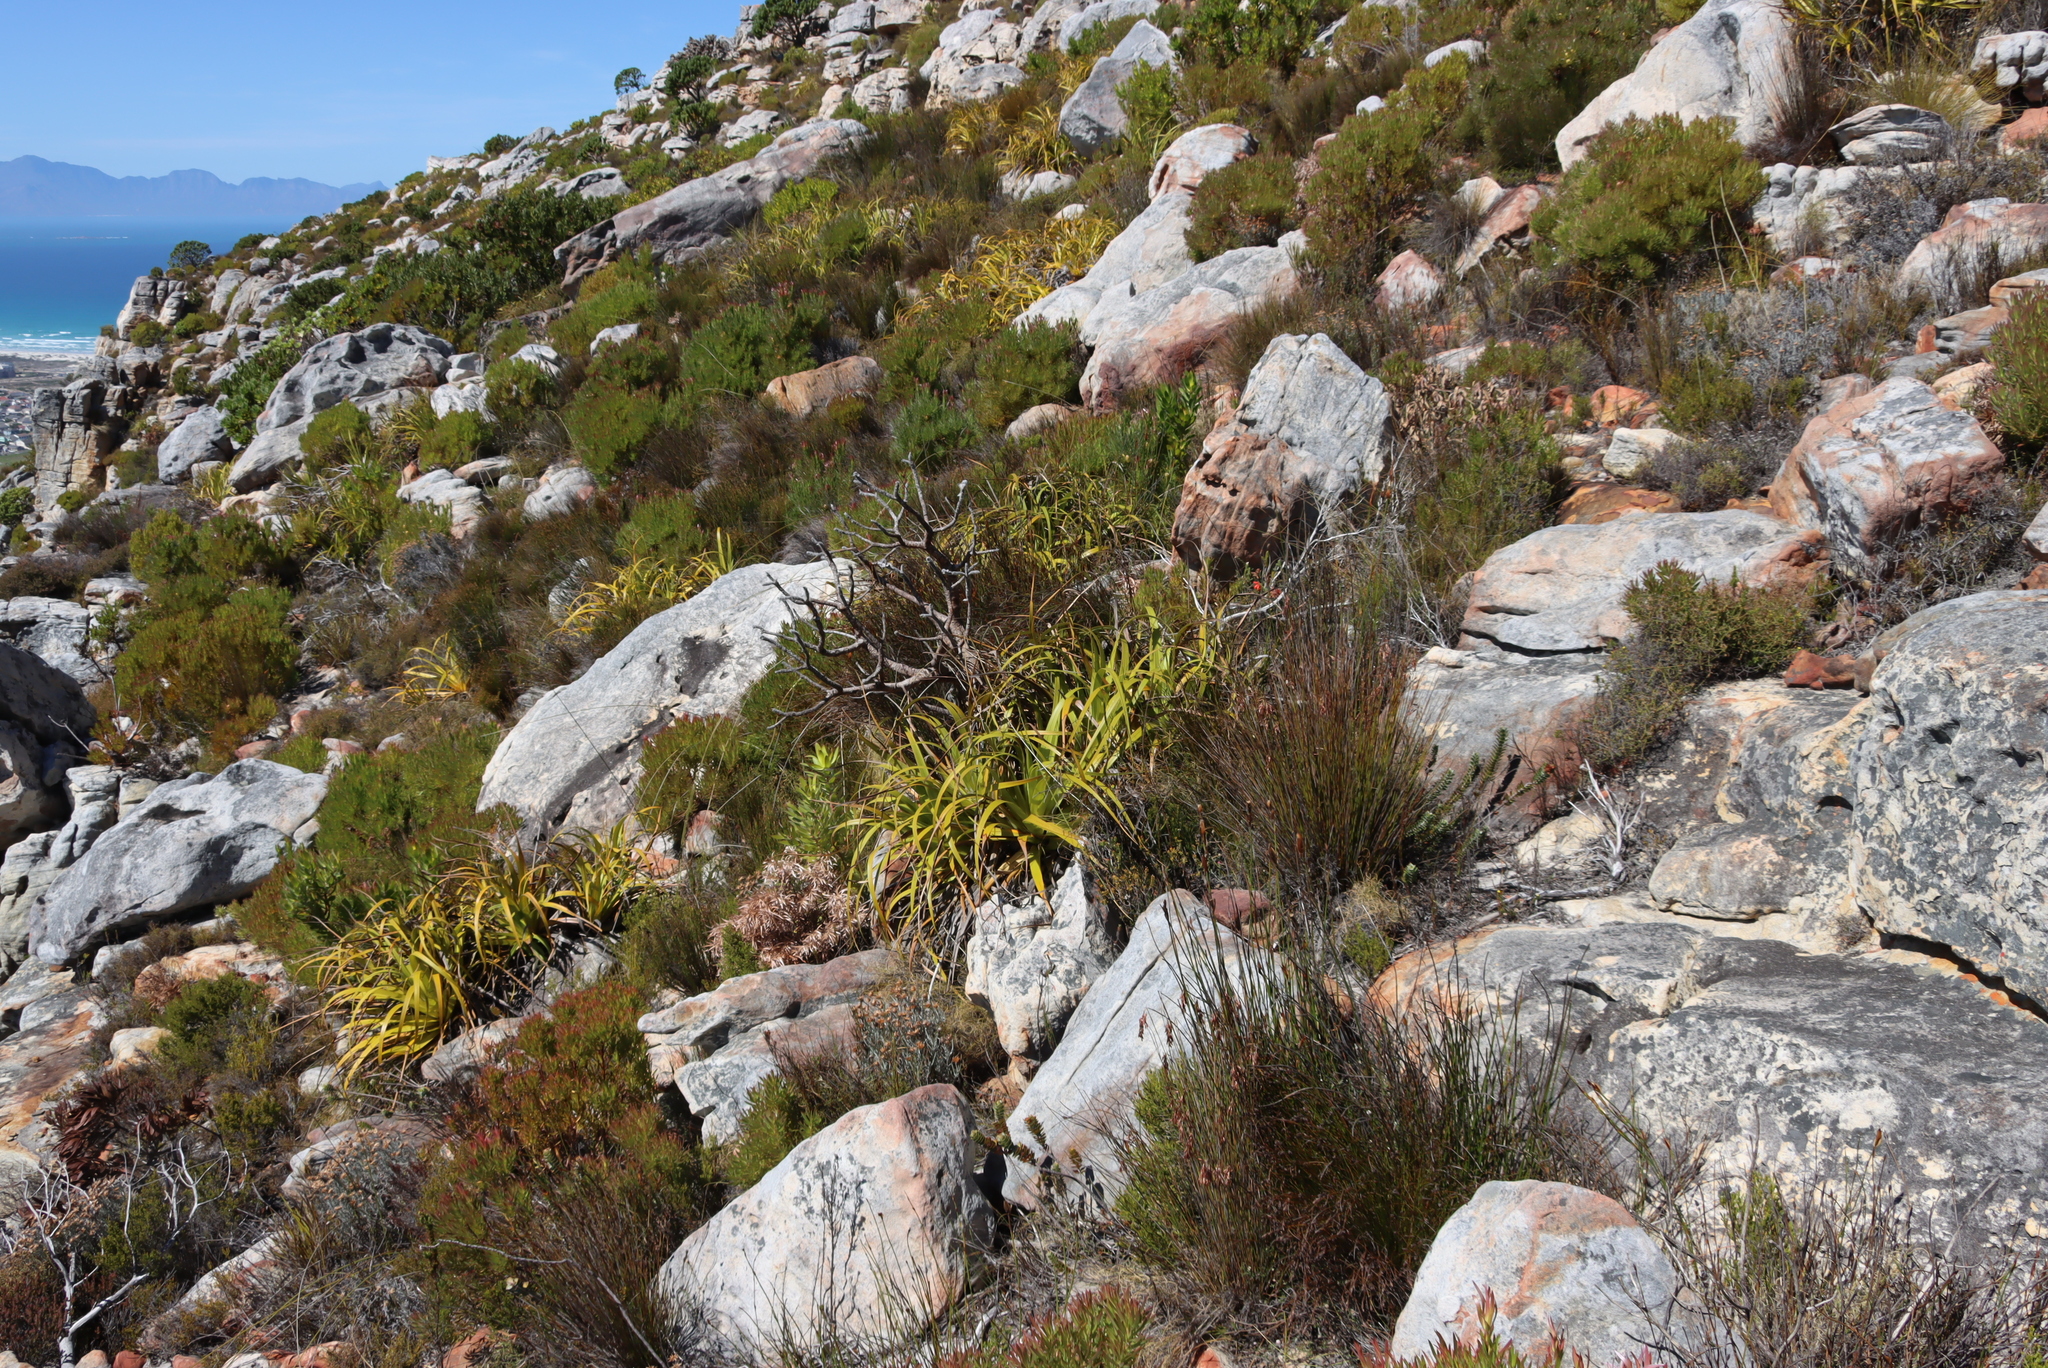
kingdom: Plantae
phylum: Tracheophyta
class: Liliopsida
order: Poales
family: Cyperaceae
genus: Tetraria
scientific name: Tetraria thermalis
